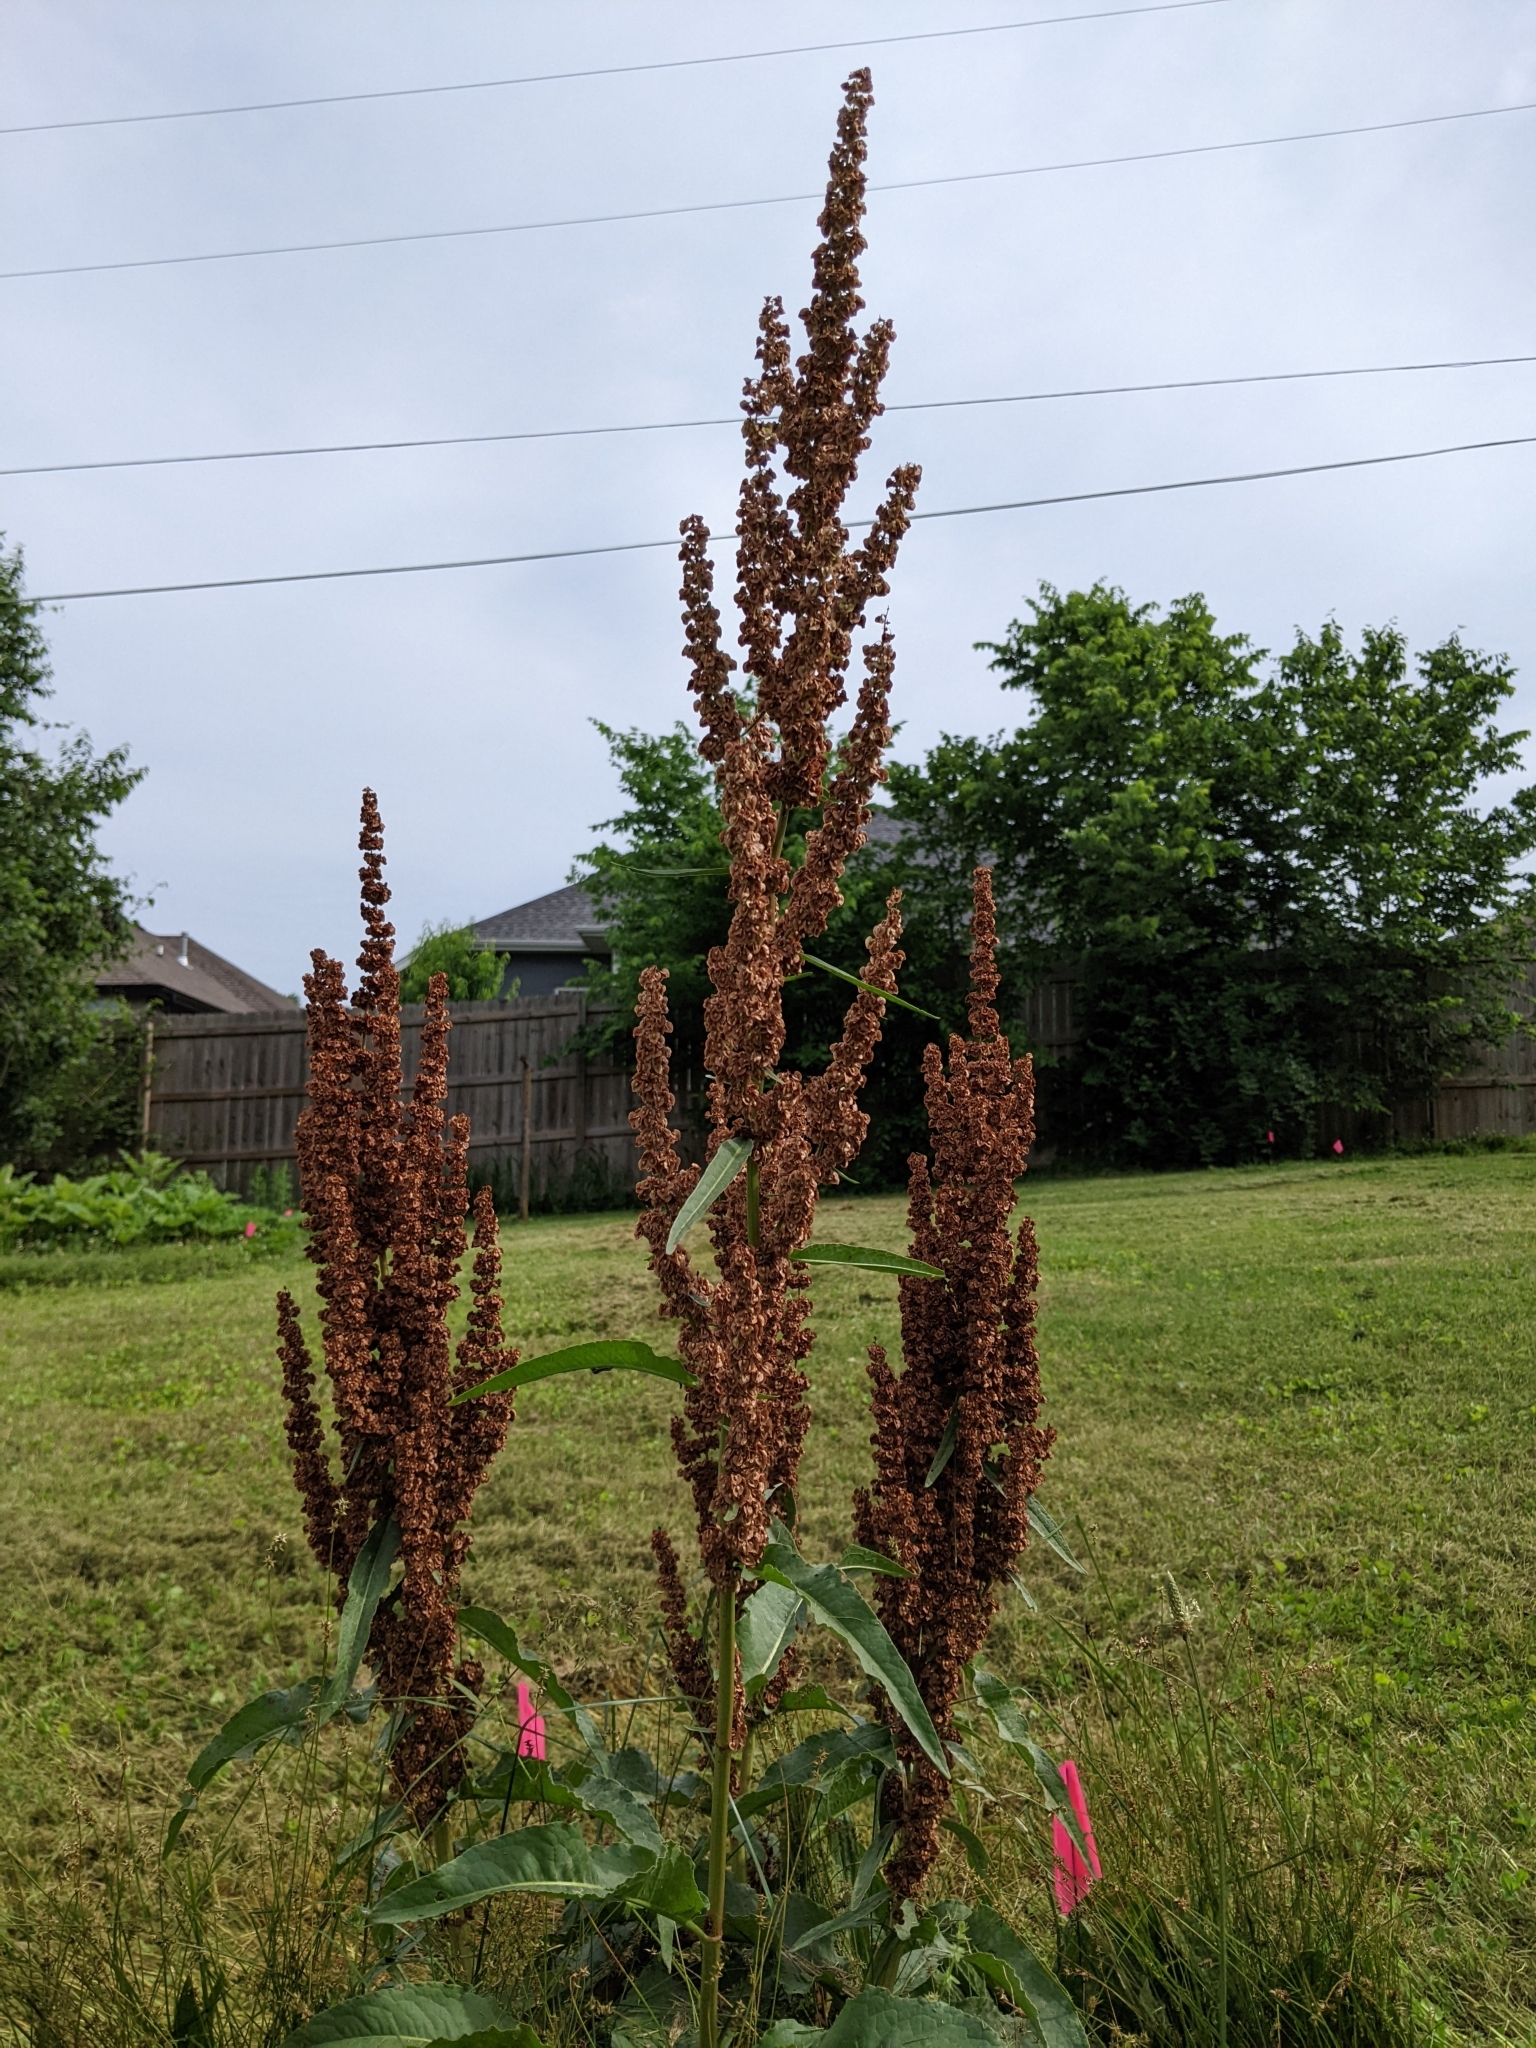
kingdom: Plantae
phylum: Tracheophyta
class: Magnoliopsida
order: Caryophyllales
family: Polygonaceae
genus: Rumex
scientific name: Rumex crispus
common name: Curled dock
